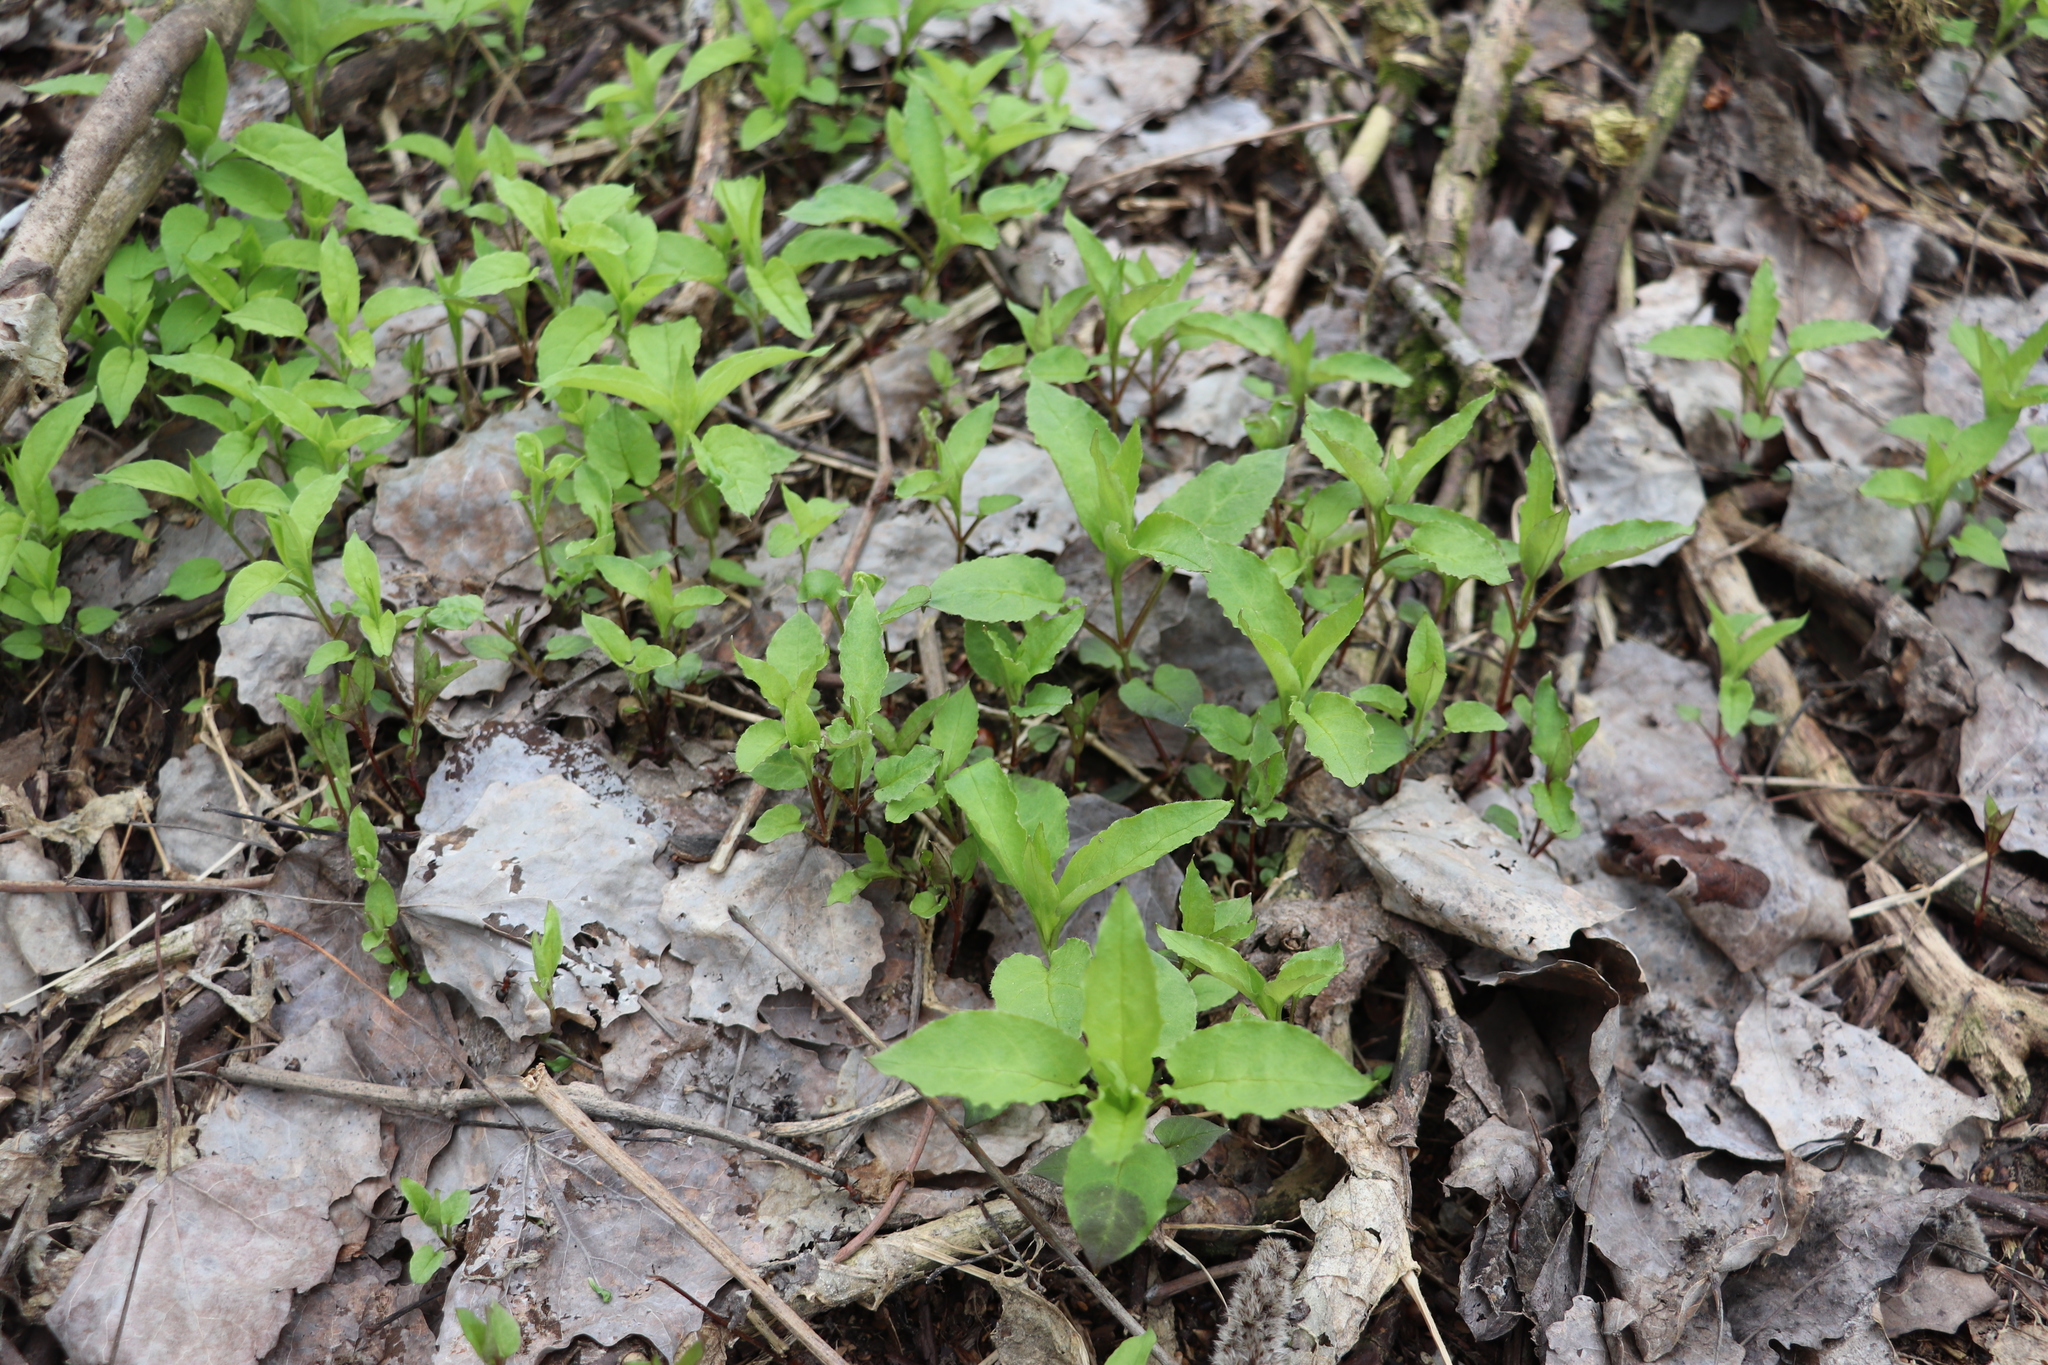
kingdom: Plantae
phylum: Tracheophyta
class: Magnoliopsida
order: Caryophyllales
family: Caryophyllaceae
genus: Stellaria
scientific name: Stellaria bungeana
